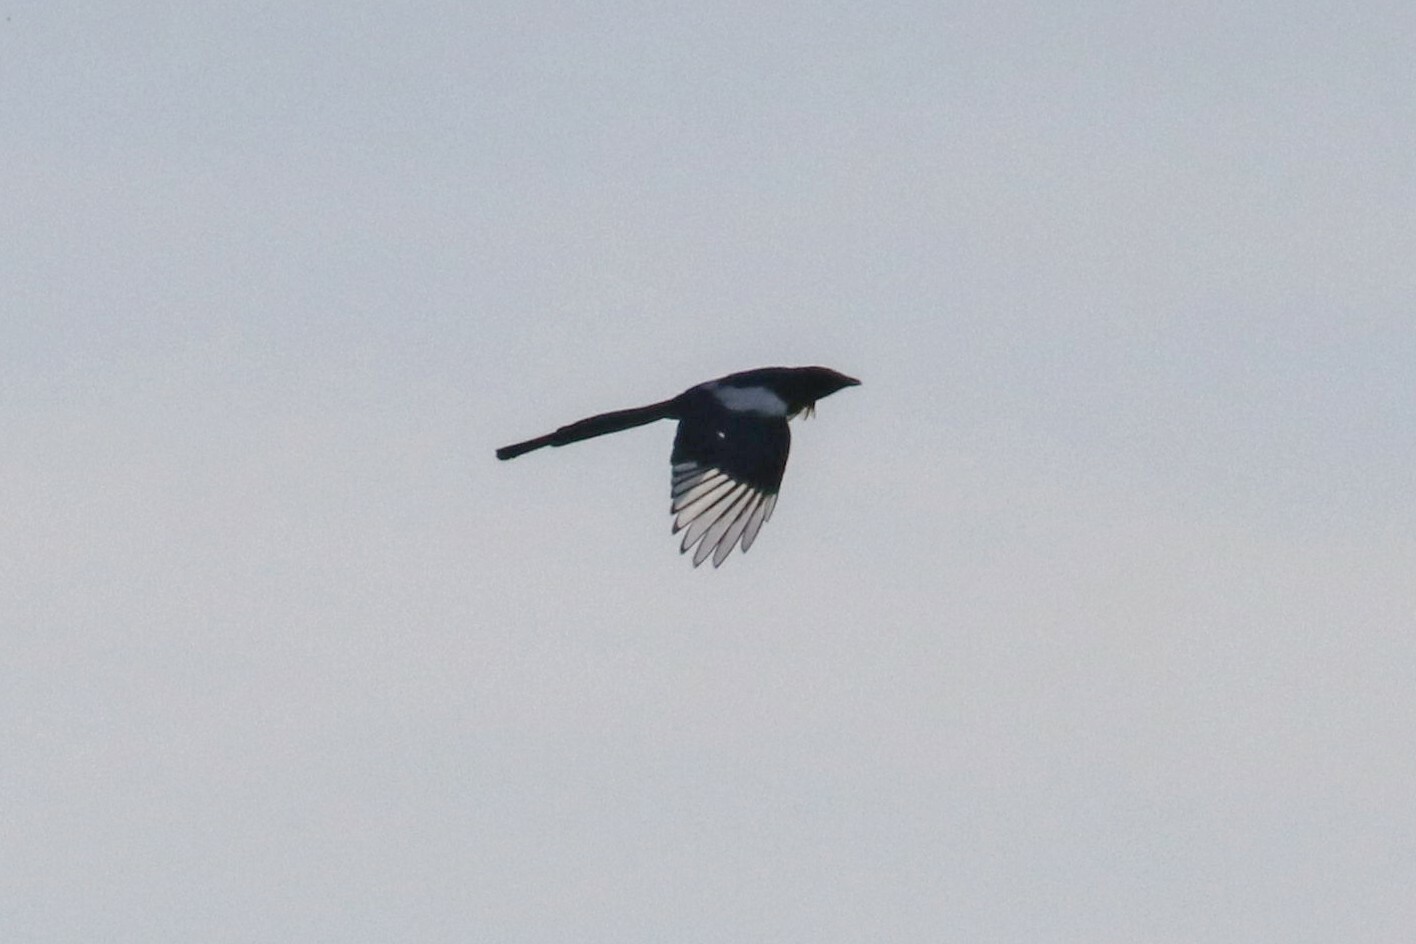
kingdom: Animalia
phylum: Chordata
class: Aves
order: Passeriformes
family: Corvidae
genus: Pica
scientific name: Pica pica
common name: Eurasian magpie
